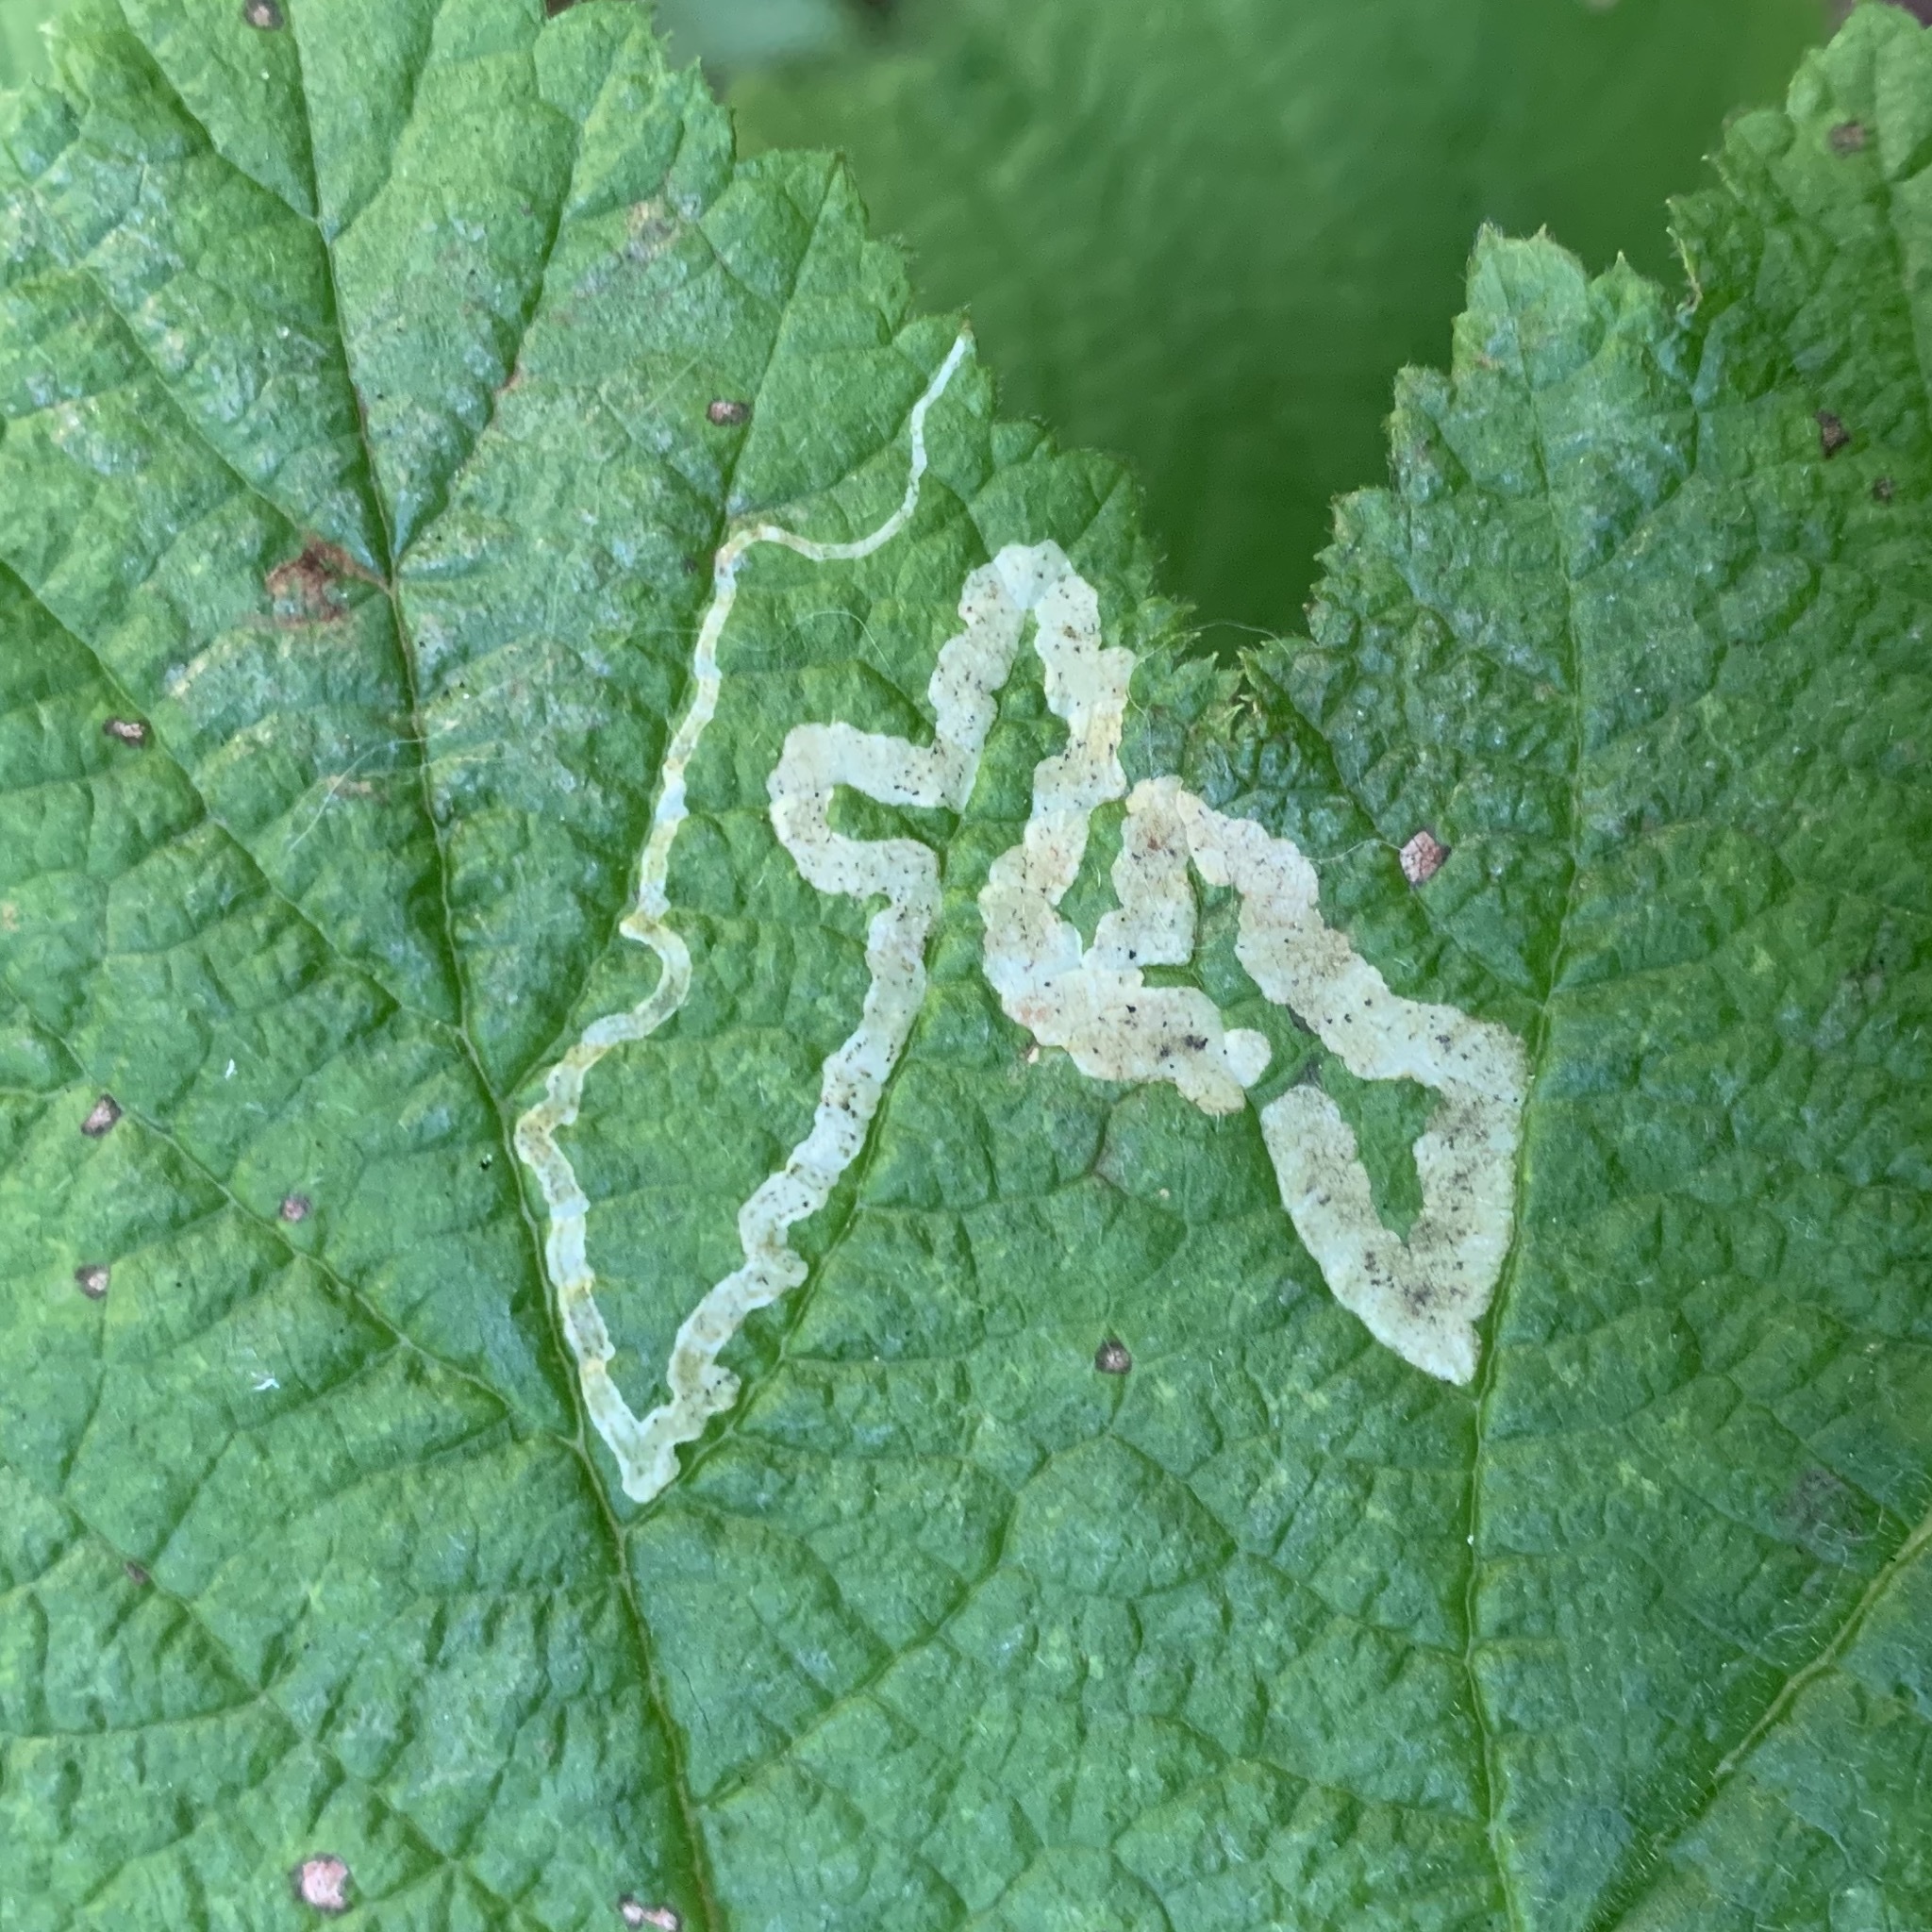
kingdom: Animalia
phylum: Arthropoda
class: Insecta
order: Diptera
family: Agromyzidae
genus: Agromyza
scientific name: Agromyza vockerothi
